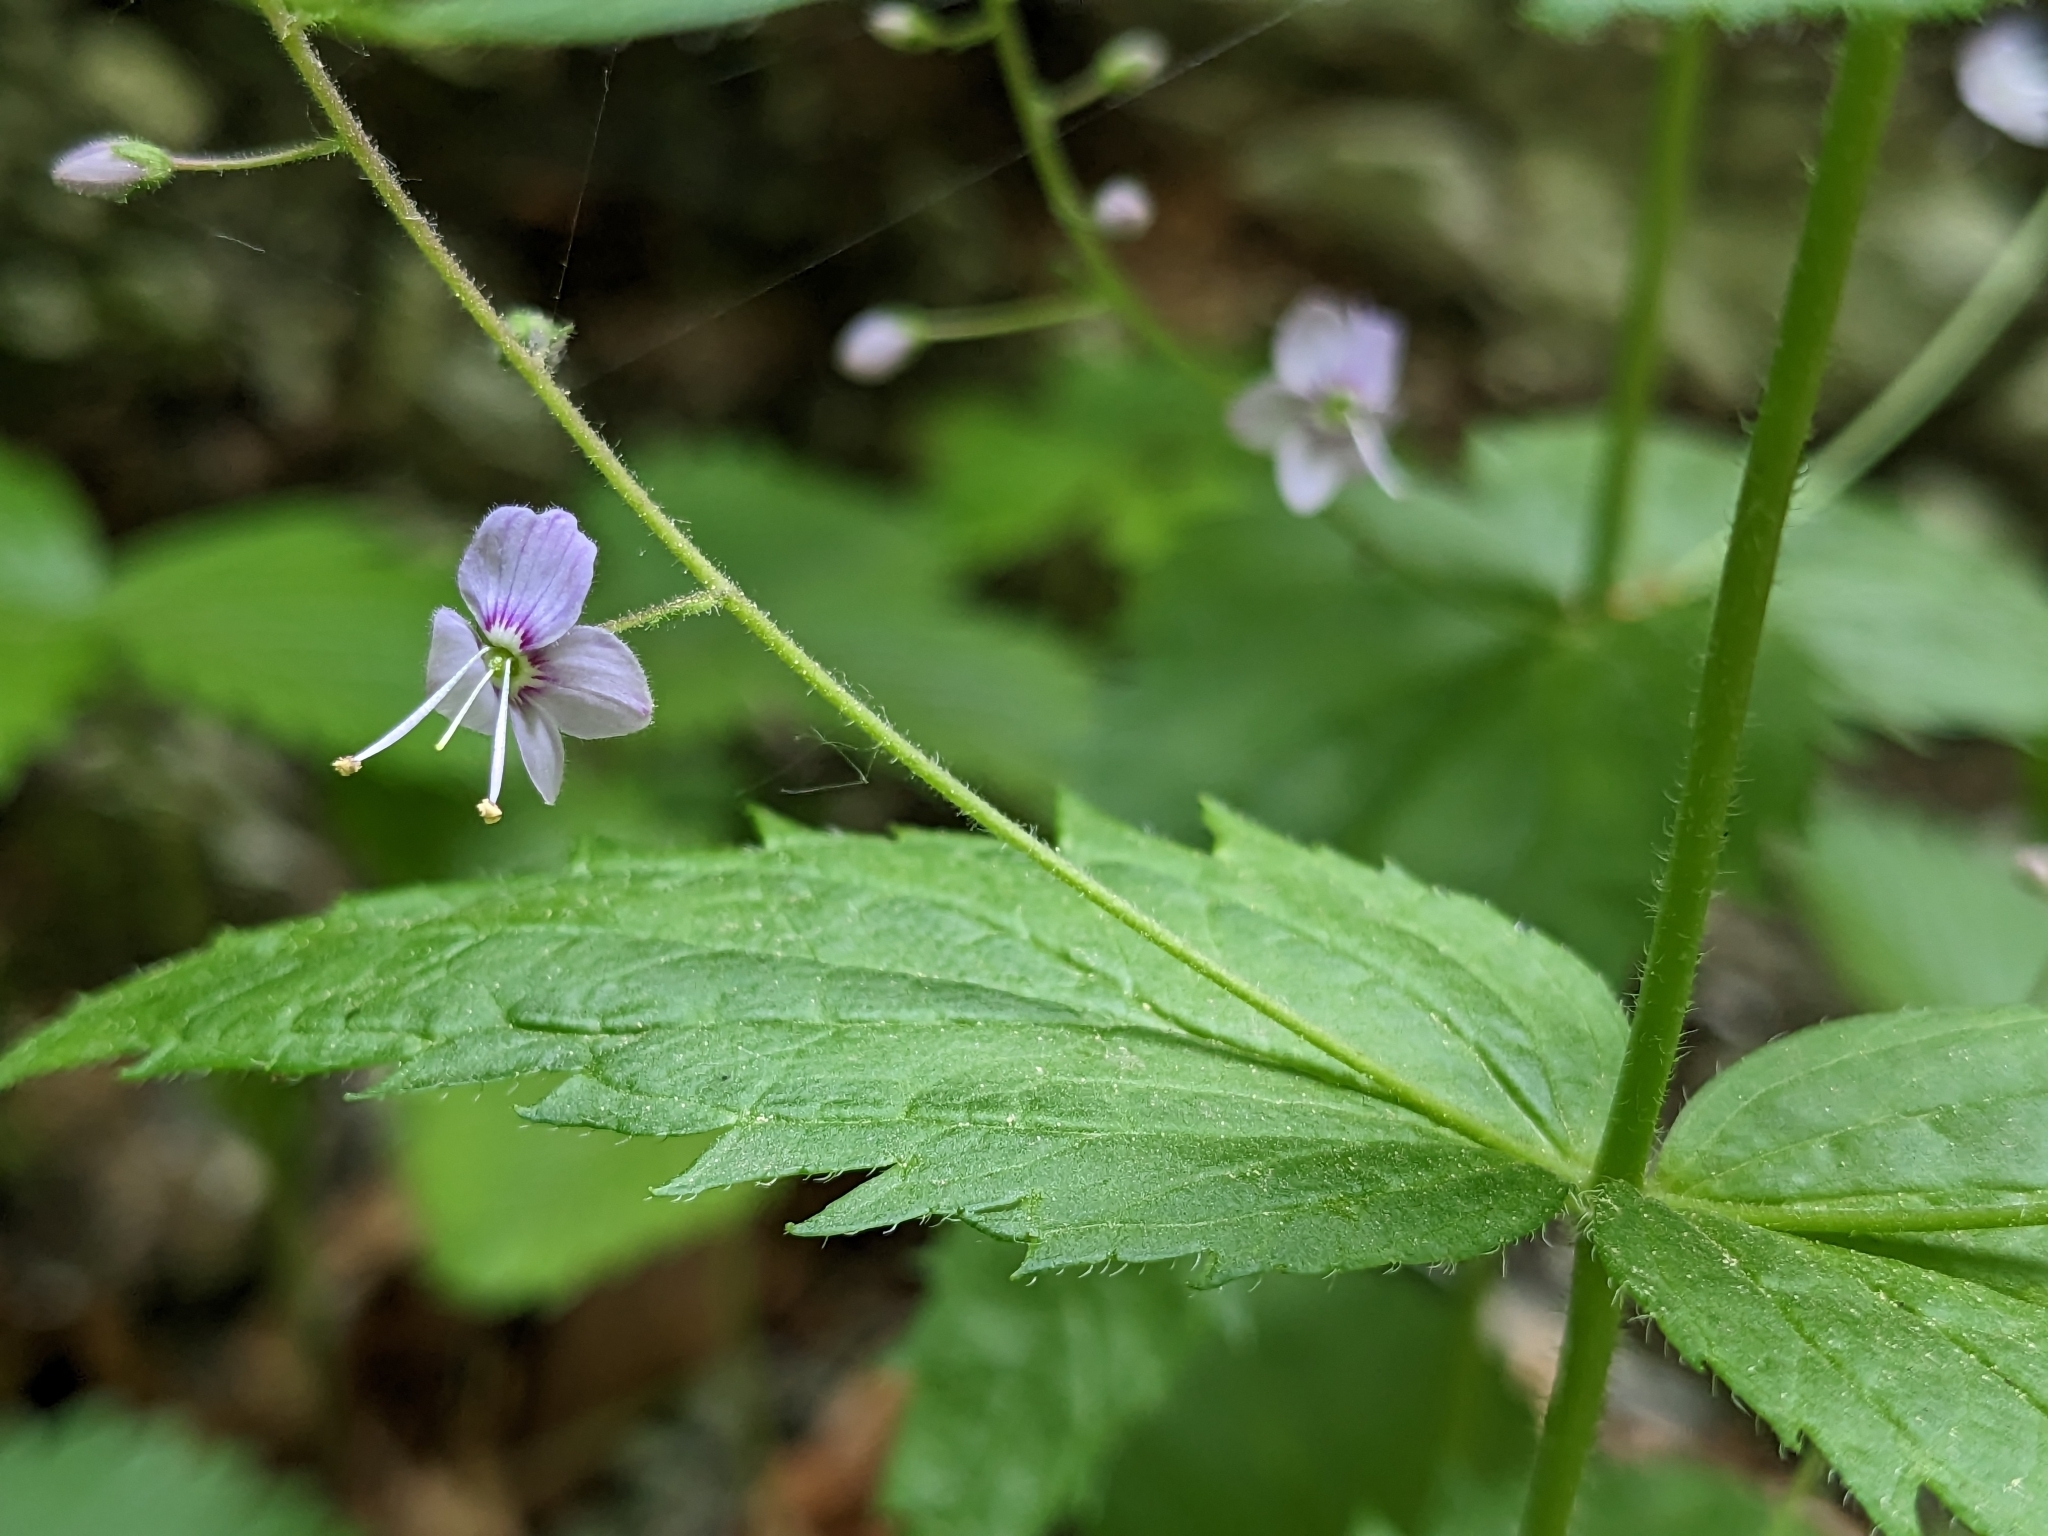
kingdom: Plantae
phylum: Tracheophyta
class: Magnoliopsida
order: Lamiales
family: Plantaginaceae
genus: Veronica
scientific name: Veronica urticifolia
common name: Nettle-leaf speedwell
